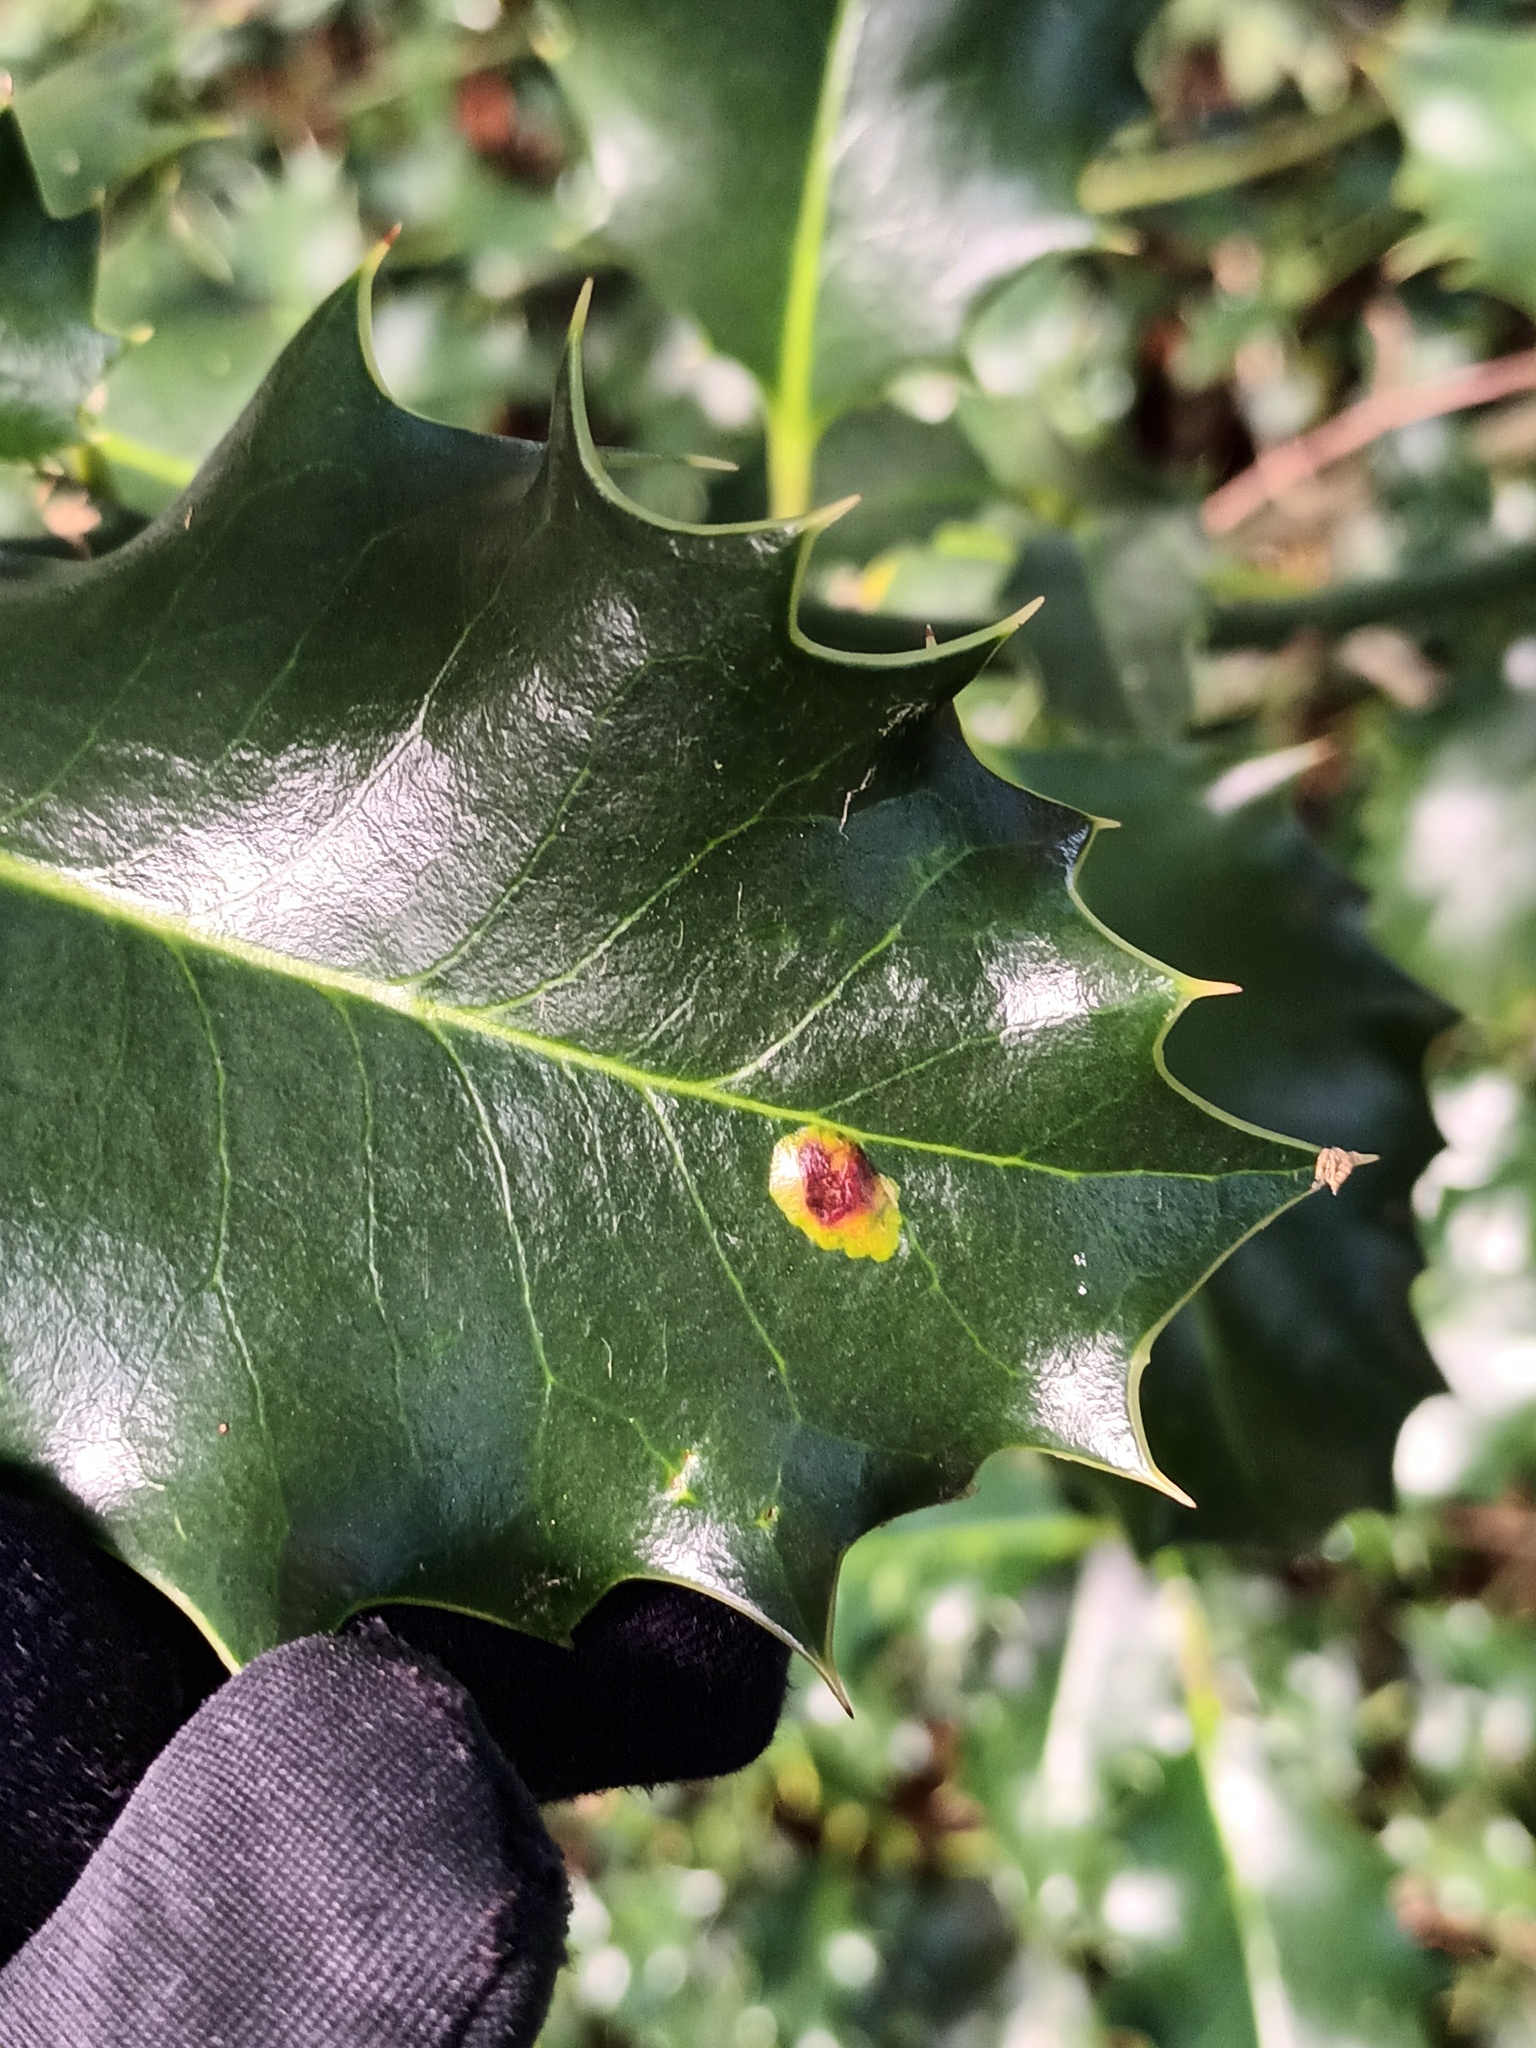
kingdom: Animalia
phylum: Arthropoda
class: Insecta
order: Diptera
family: Agromyzidae
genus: Phytomyza
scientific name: Phytomyza ilicis
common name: Holly leafminer
